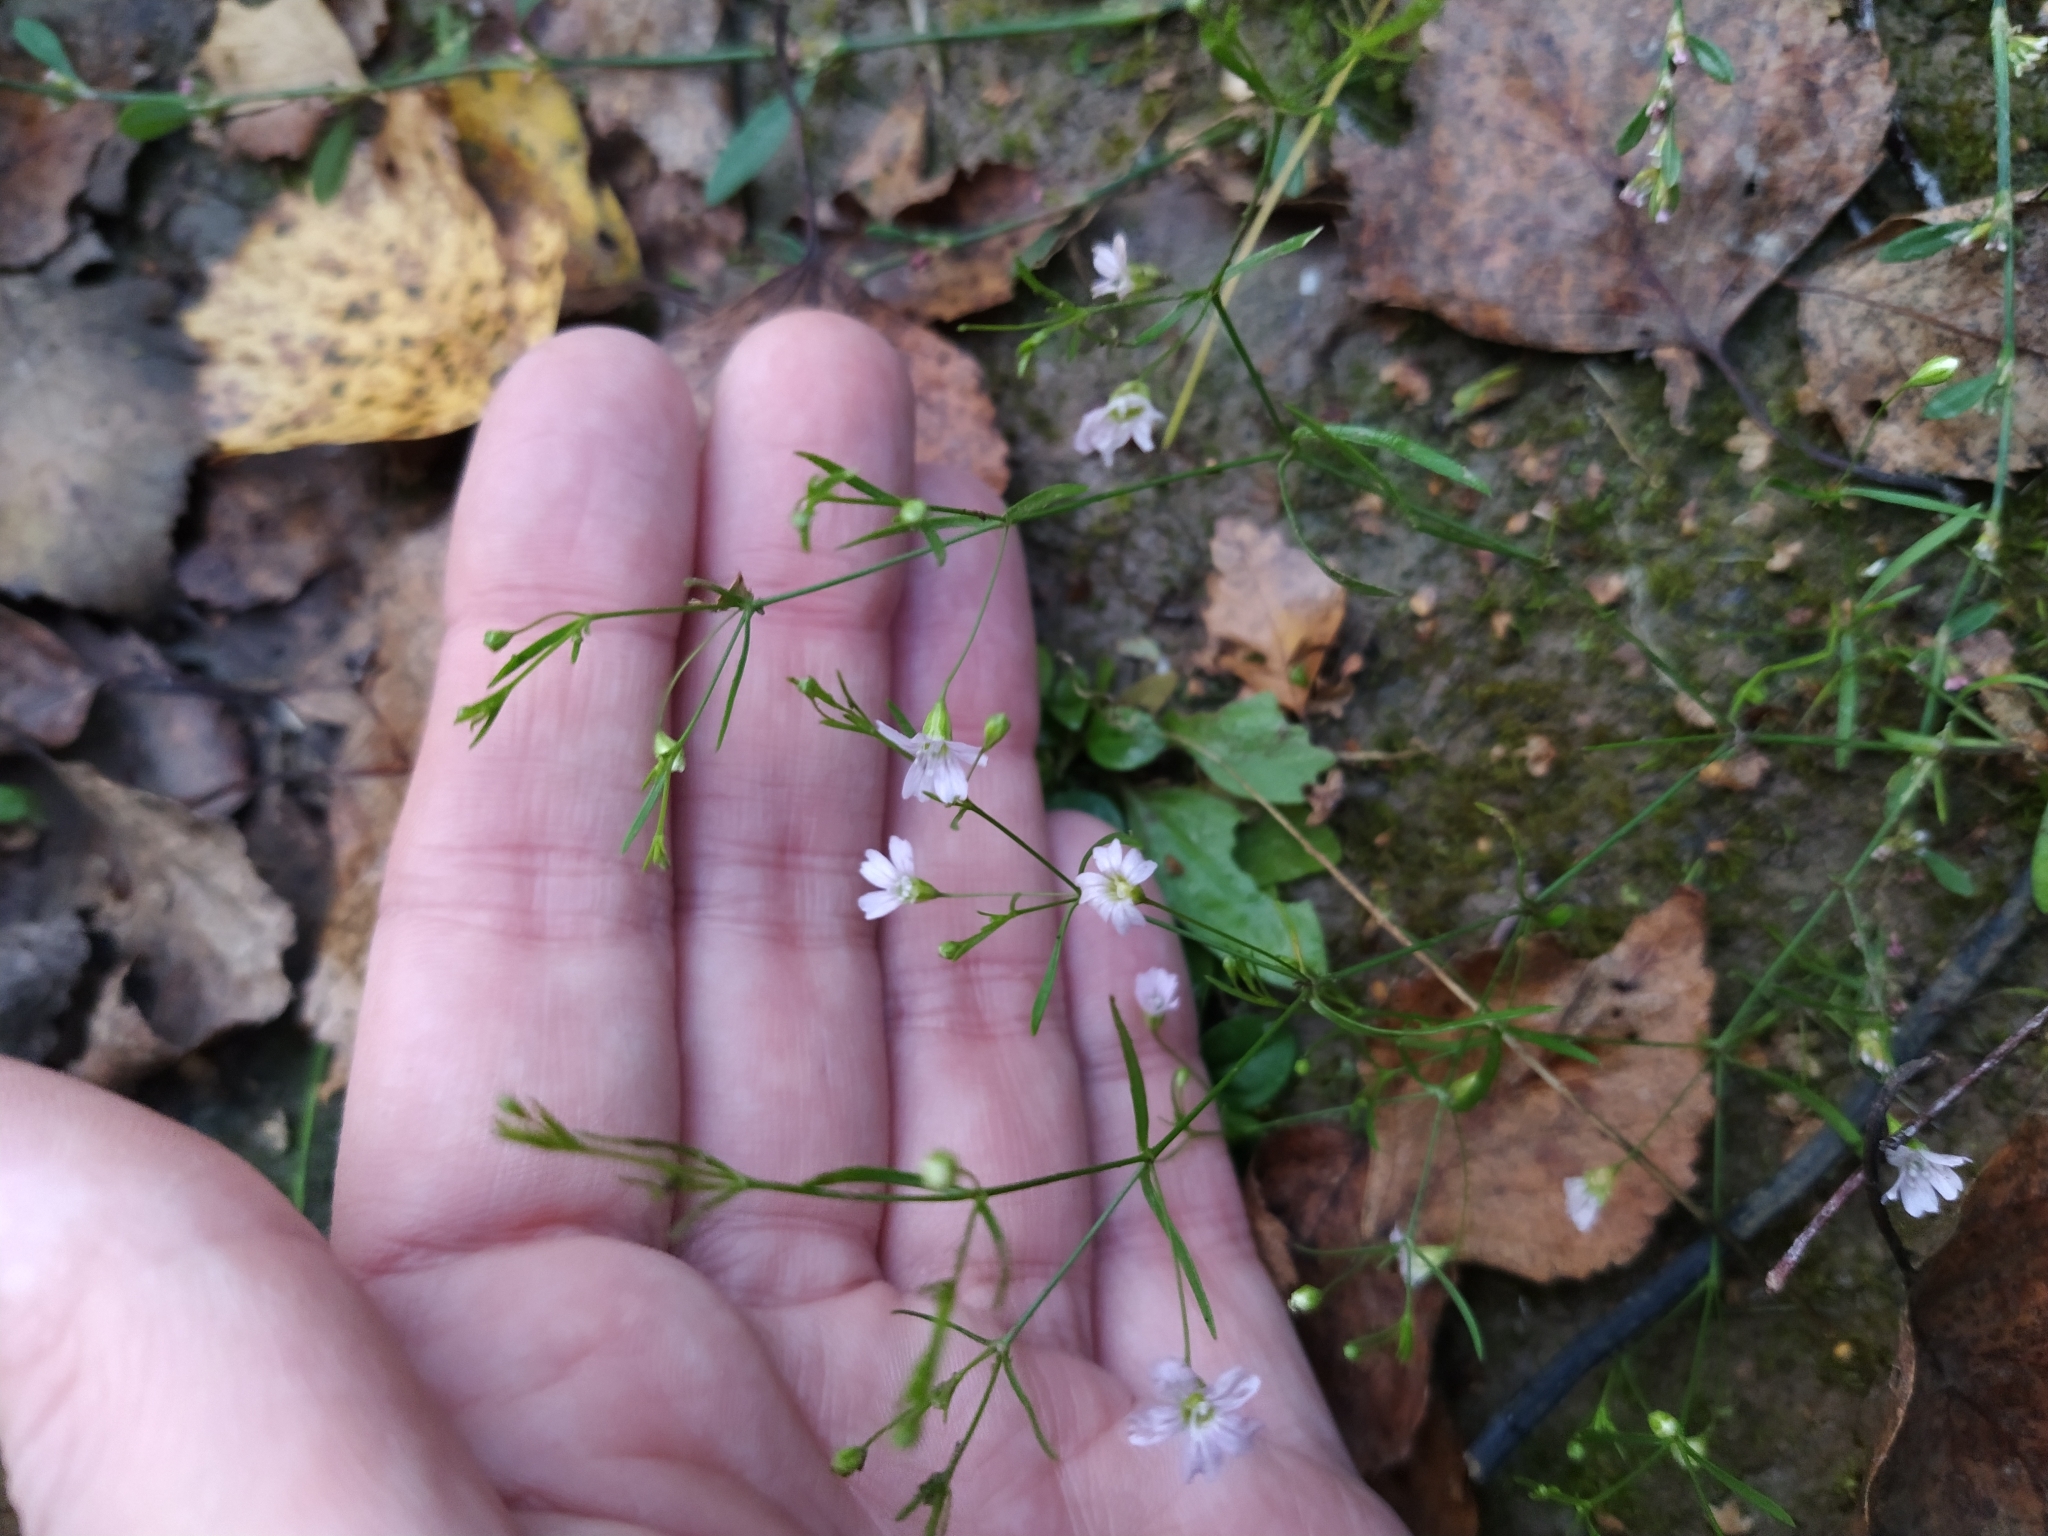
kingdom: Plantae
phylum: Tracheophyta
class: Magnoliopsida
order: Caryophyllales
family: Caryophyllaceae
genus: Psammophiliella
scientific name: Psammophiliella muralis
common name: Cushion baby's-breath
